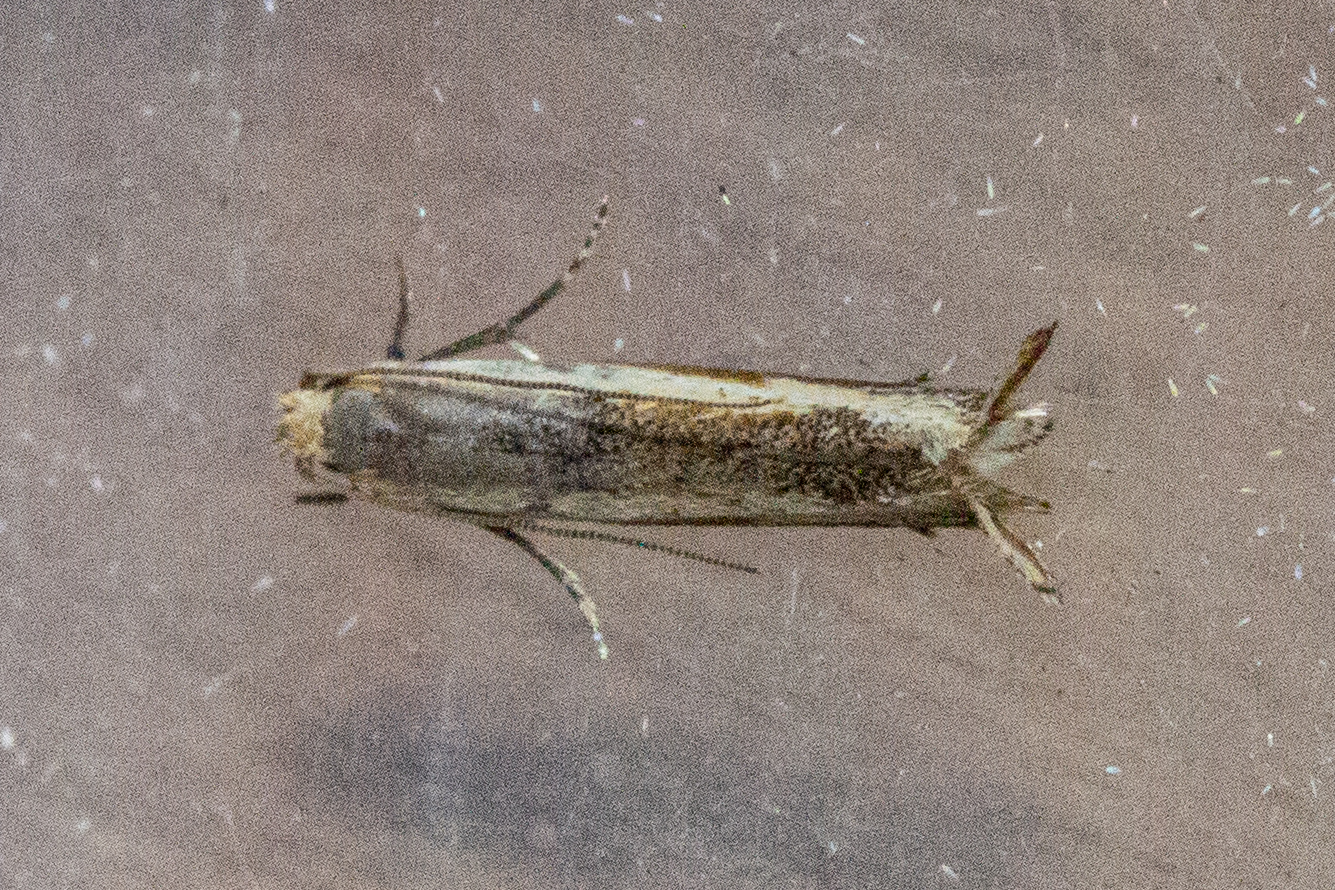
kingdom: Animalia
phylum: Arthropoda
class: Insecta
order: Lepidoptera
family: Tineidae
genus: Erechthias
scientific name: Erechthias charadrota
